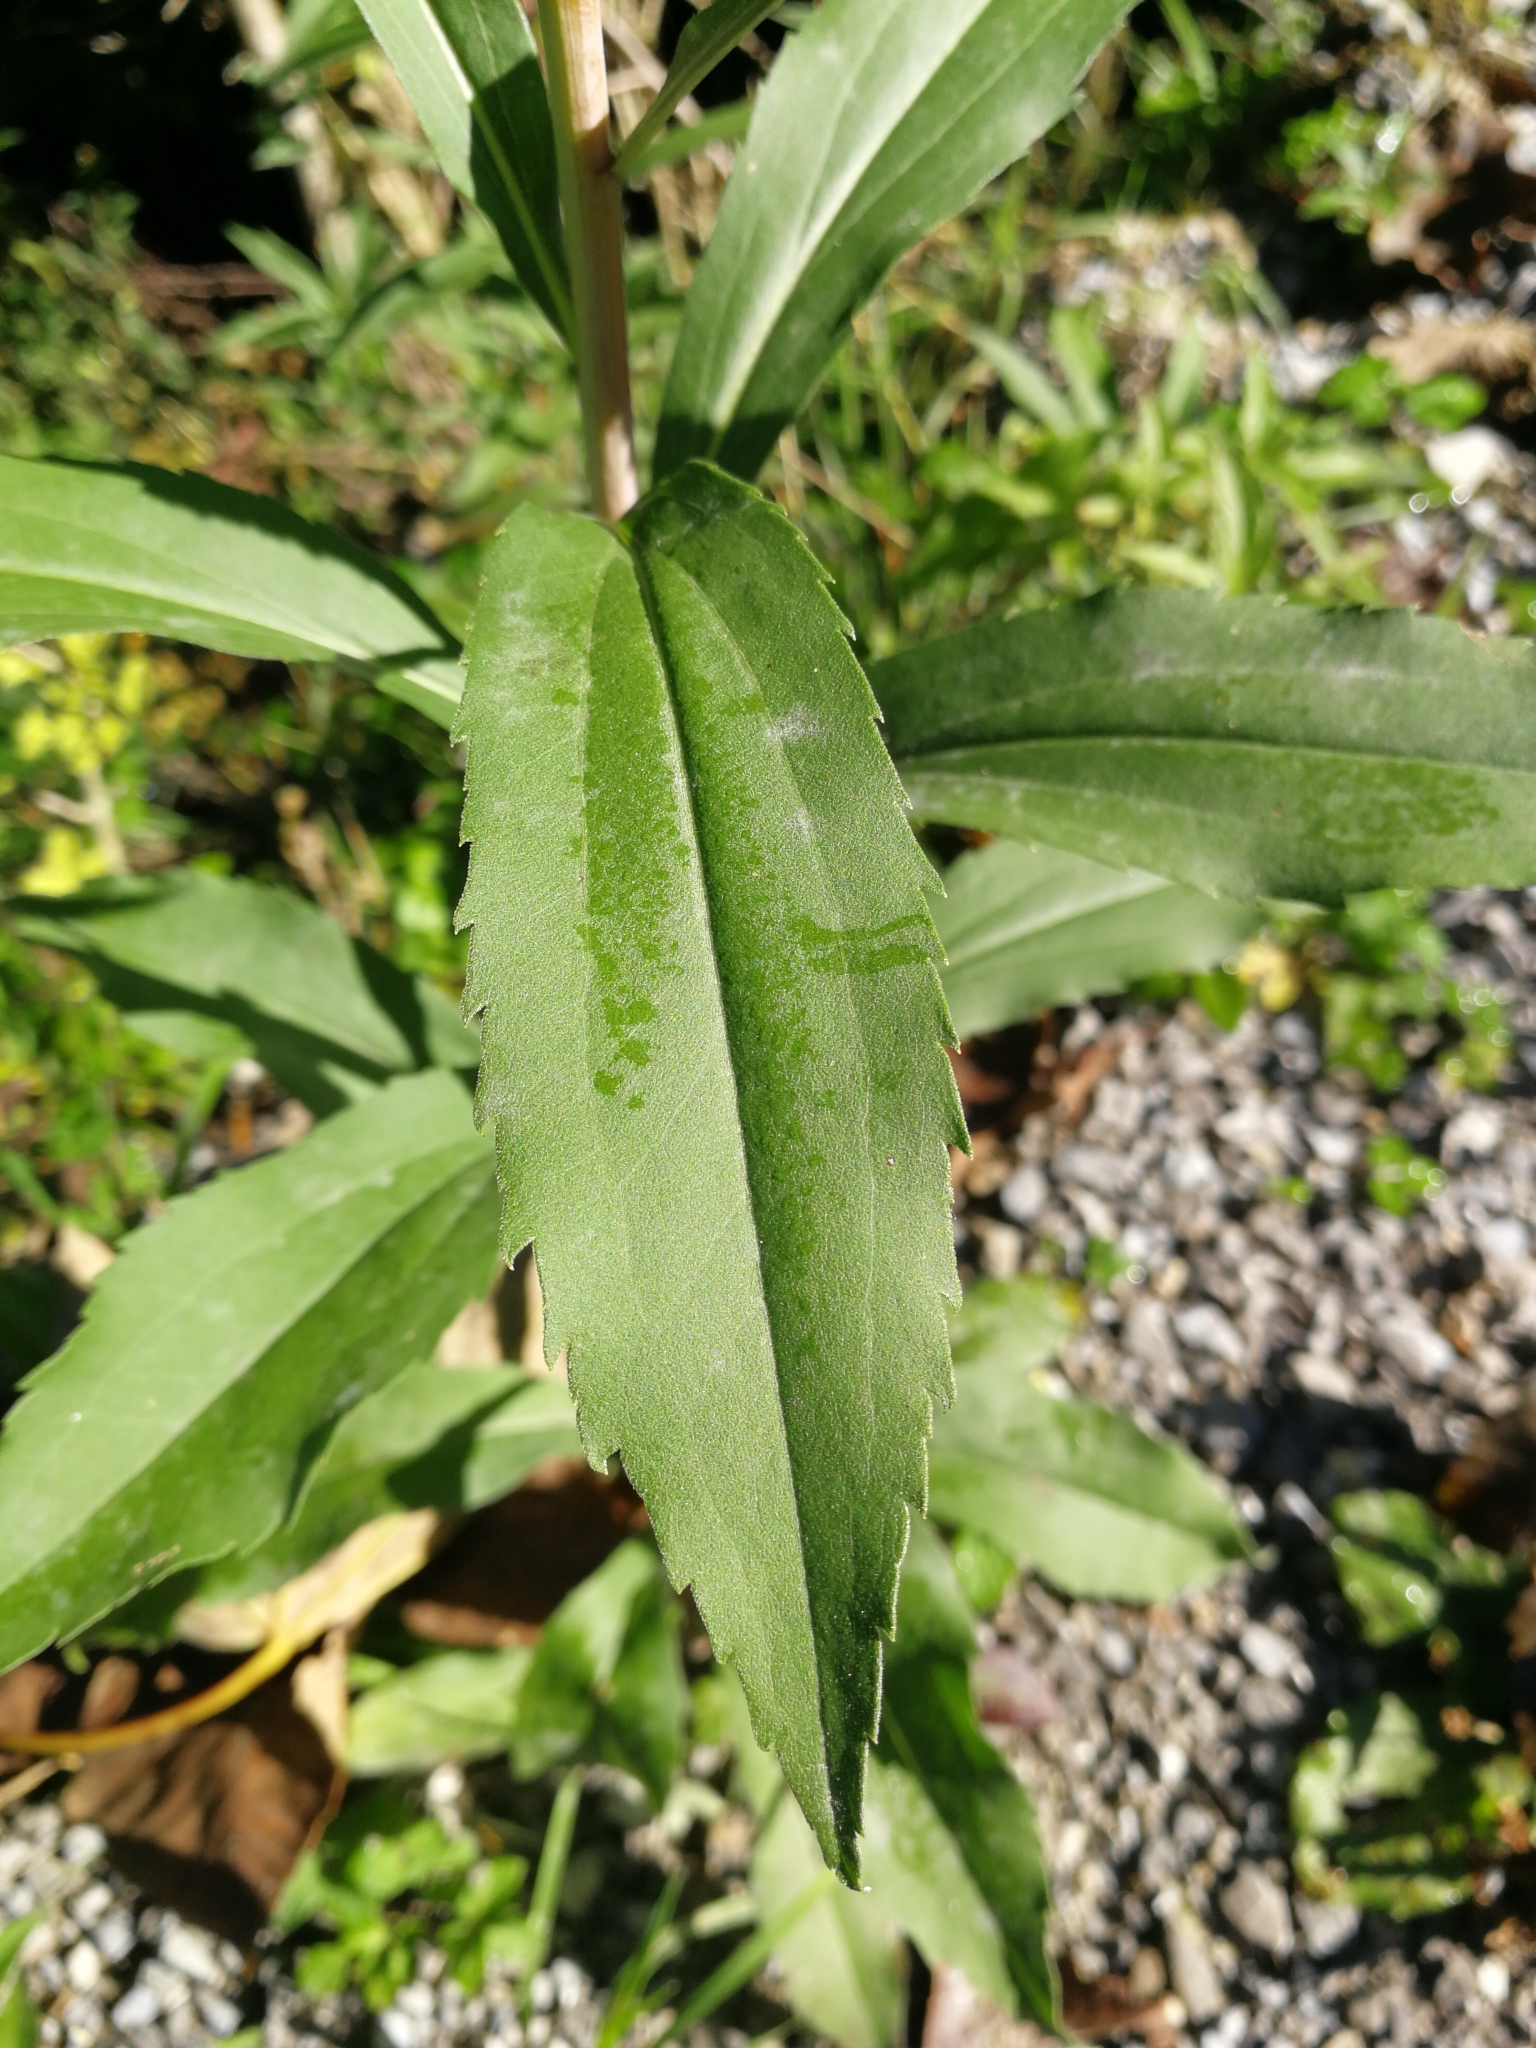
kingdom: Plantae
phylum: Tracheophyta
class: Magnoliopsida
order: Asterales
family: Asteraceae
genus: Solidago
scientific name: Solidago gigantea
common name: Giant goldenrod
